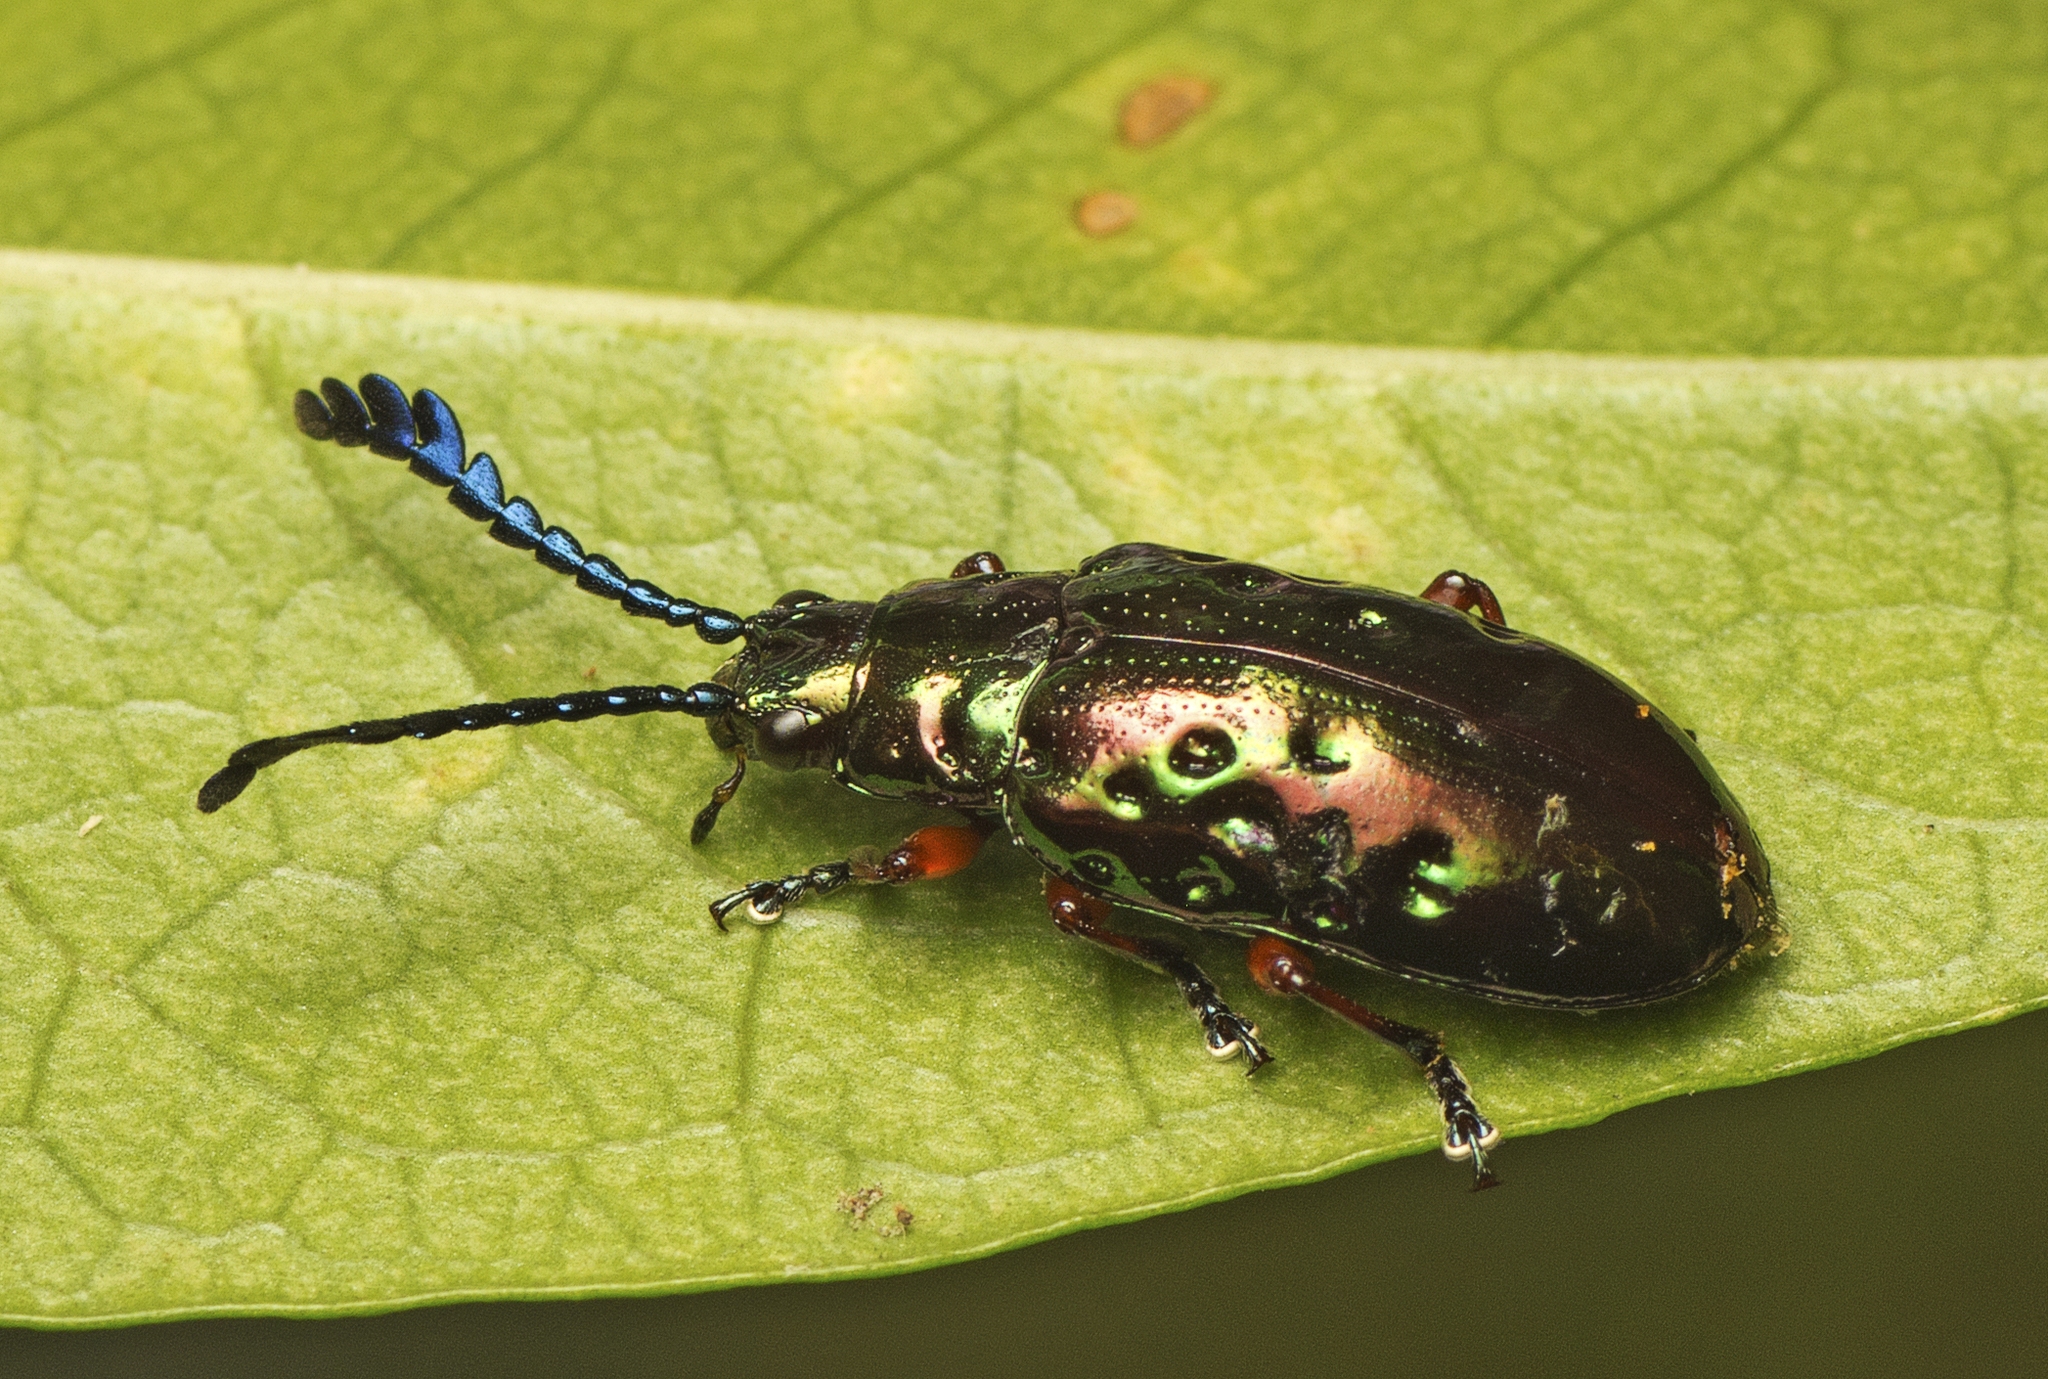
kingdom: Animalia
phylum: Arthropoda
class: Insecta
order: Coleoptera
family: Chrysomelidae
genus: Johannica
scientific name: Johannica gemellata
